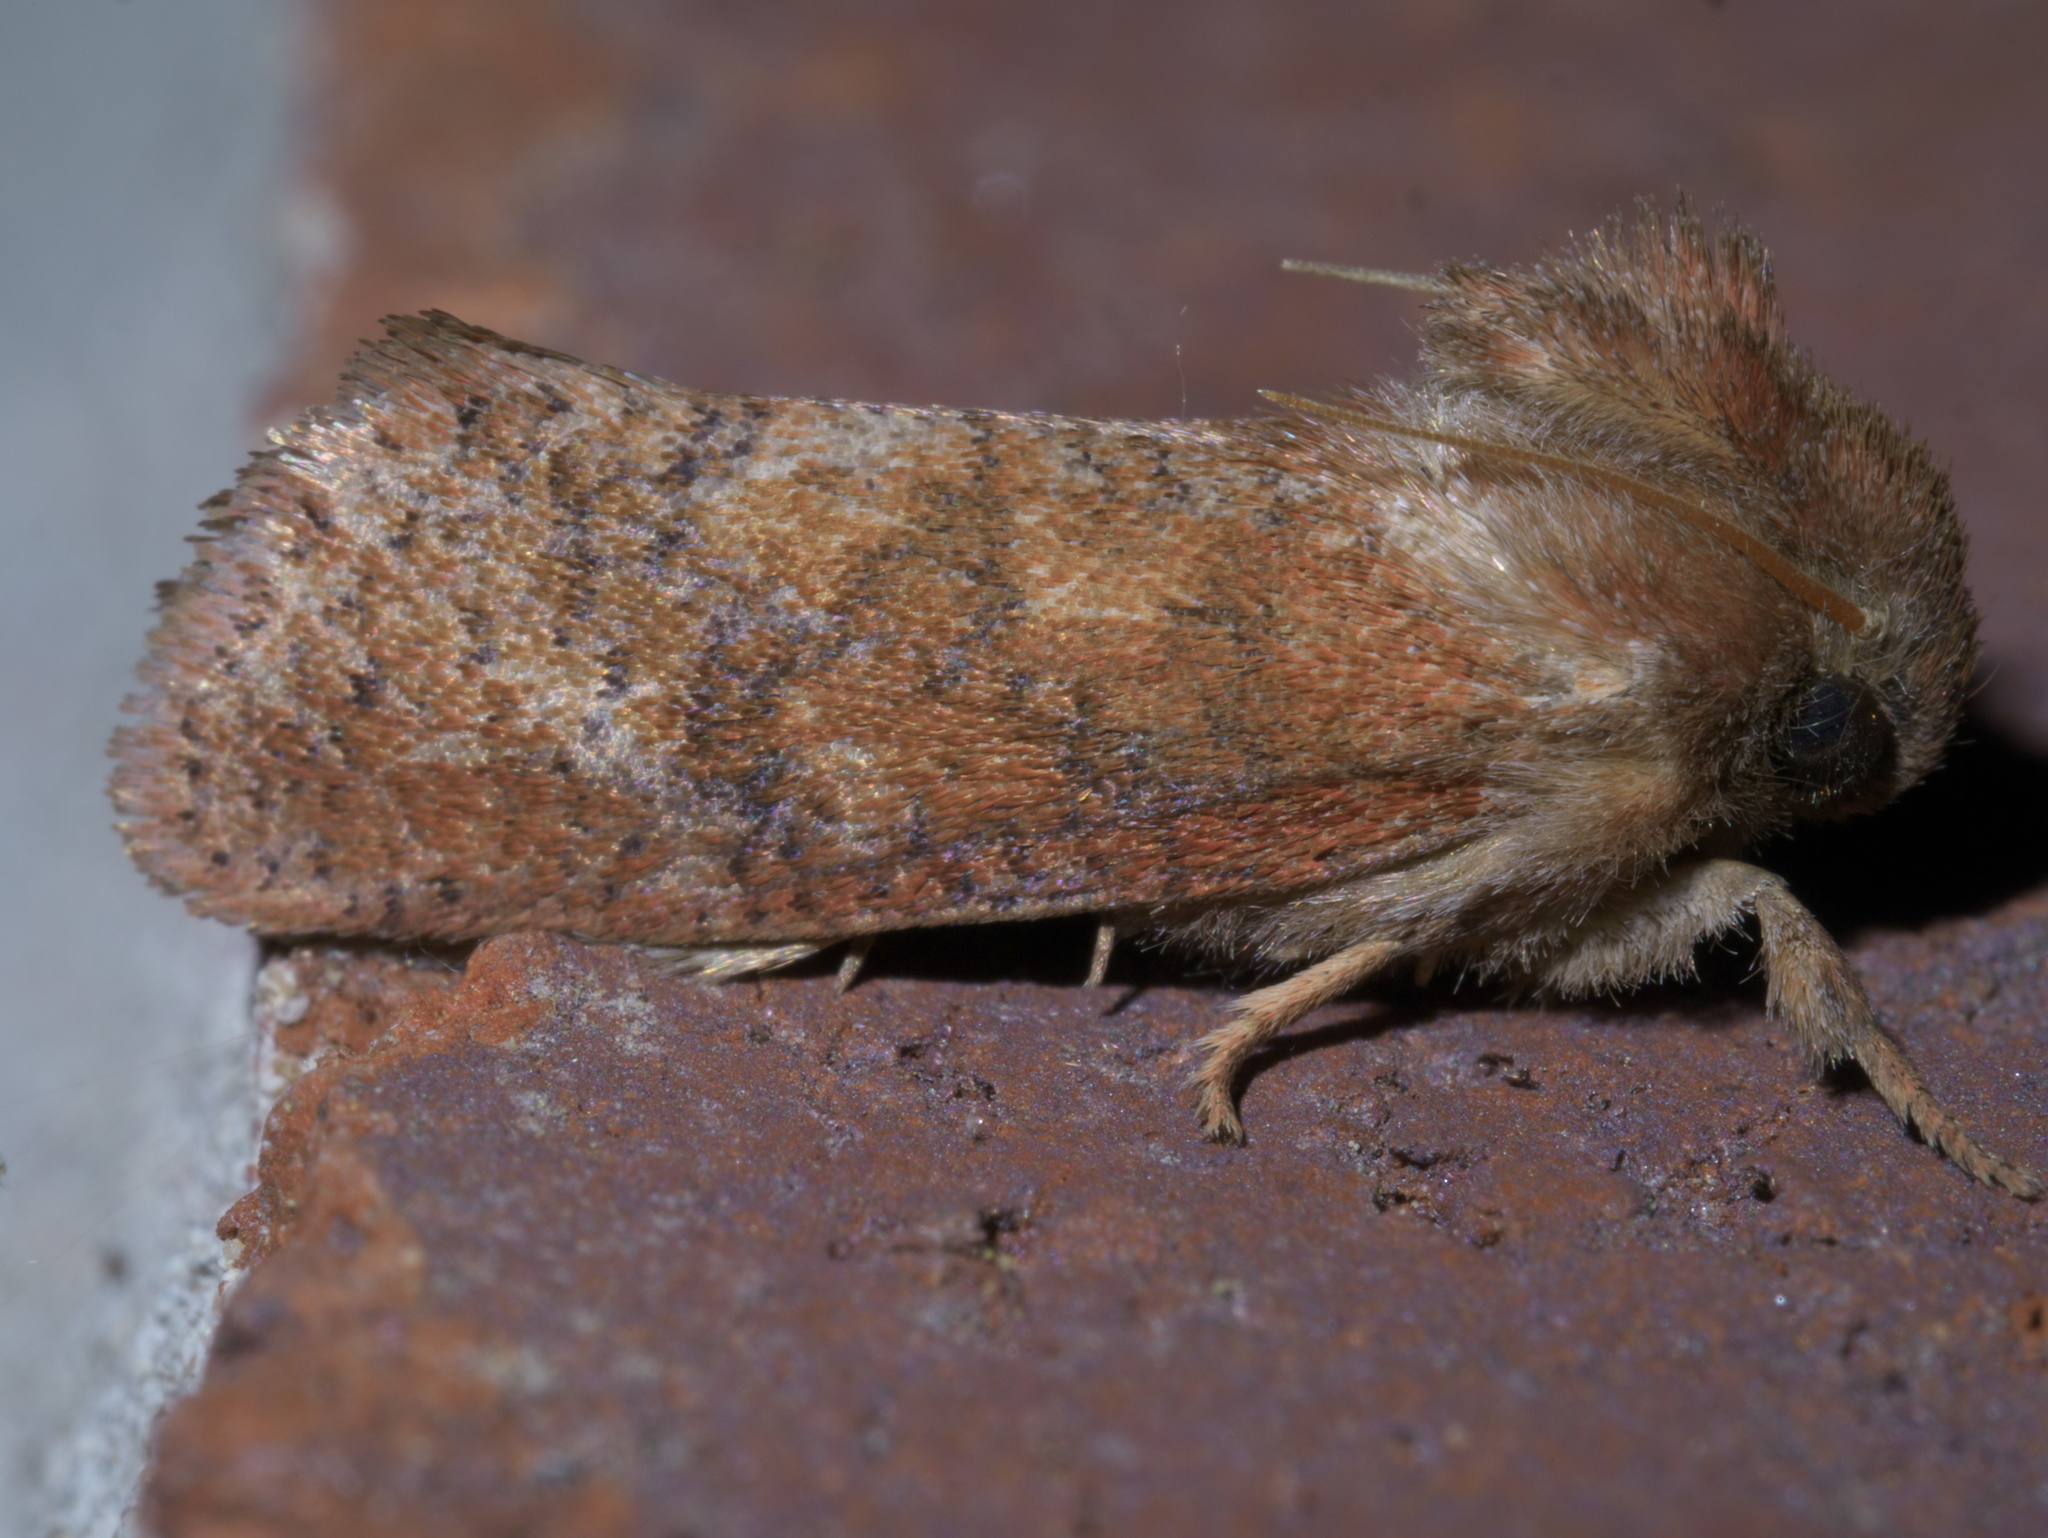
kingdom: Animalia
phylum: Arthropoda
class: Insecta
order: Lepidoptera
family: Tineidae
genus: Acrolophus
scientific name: Acrolophus plumifrontella
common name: Eastern grass tubeworm moth
